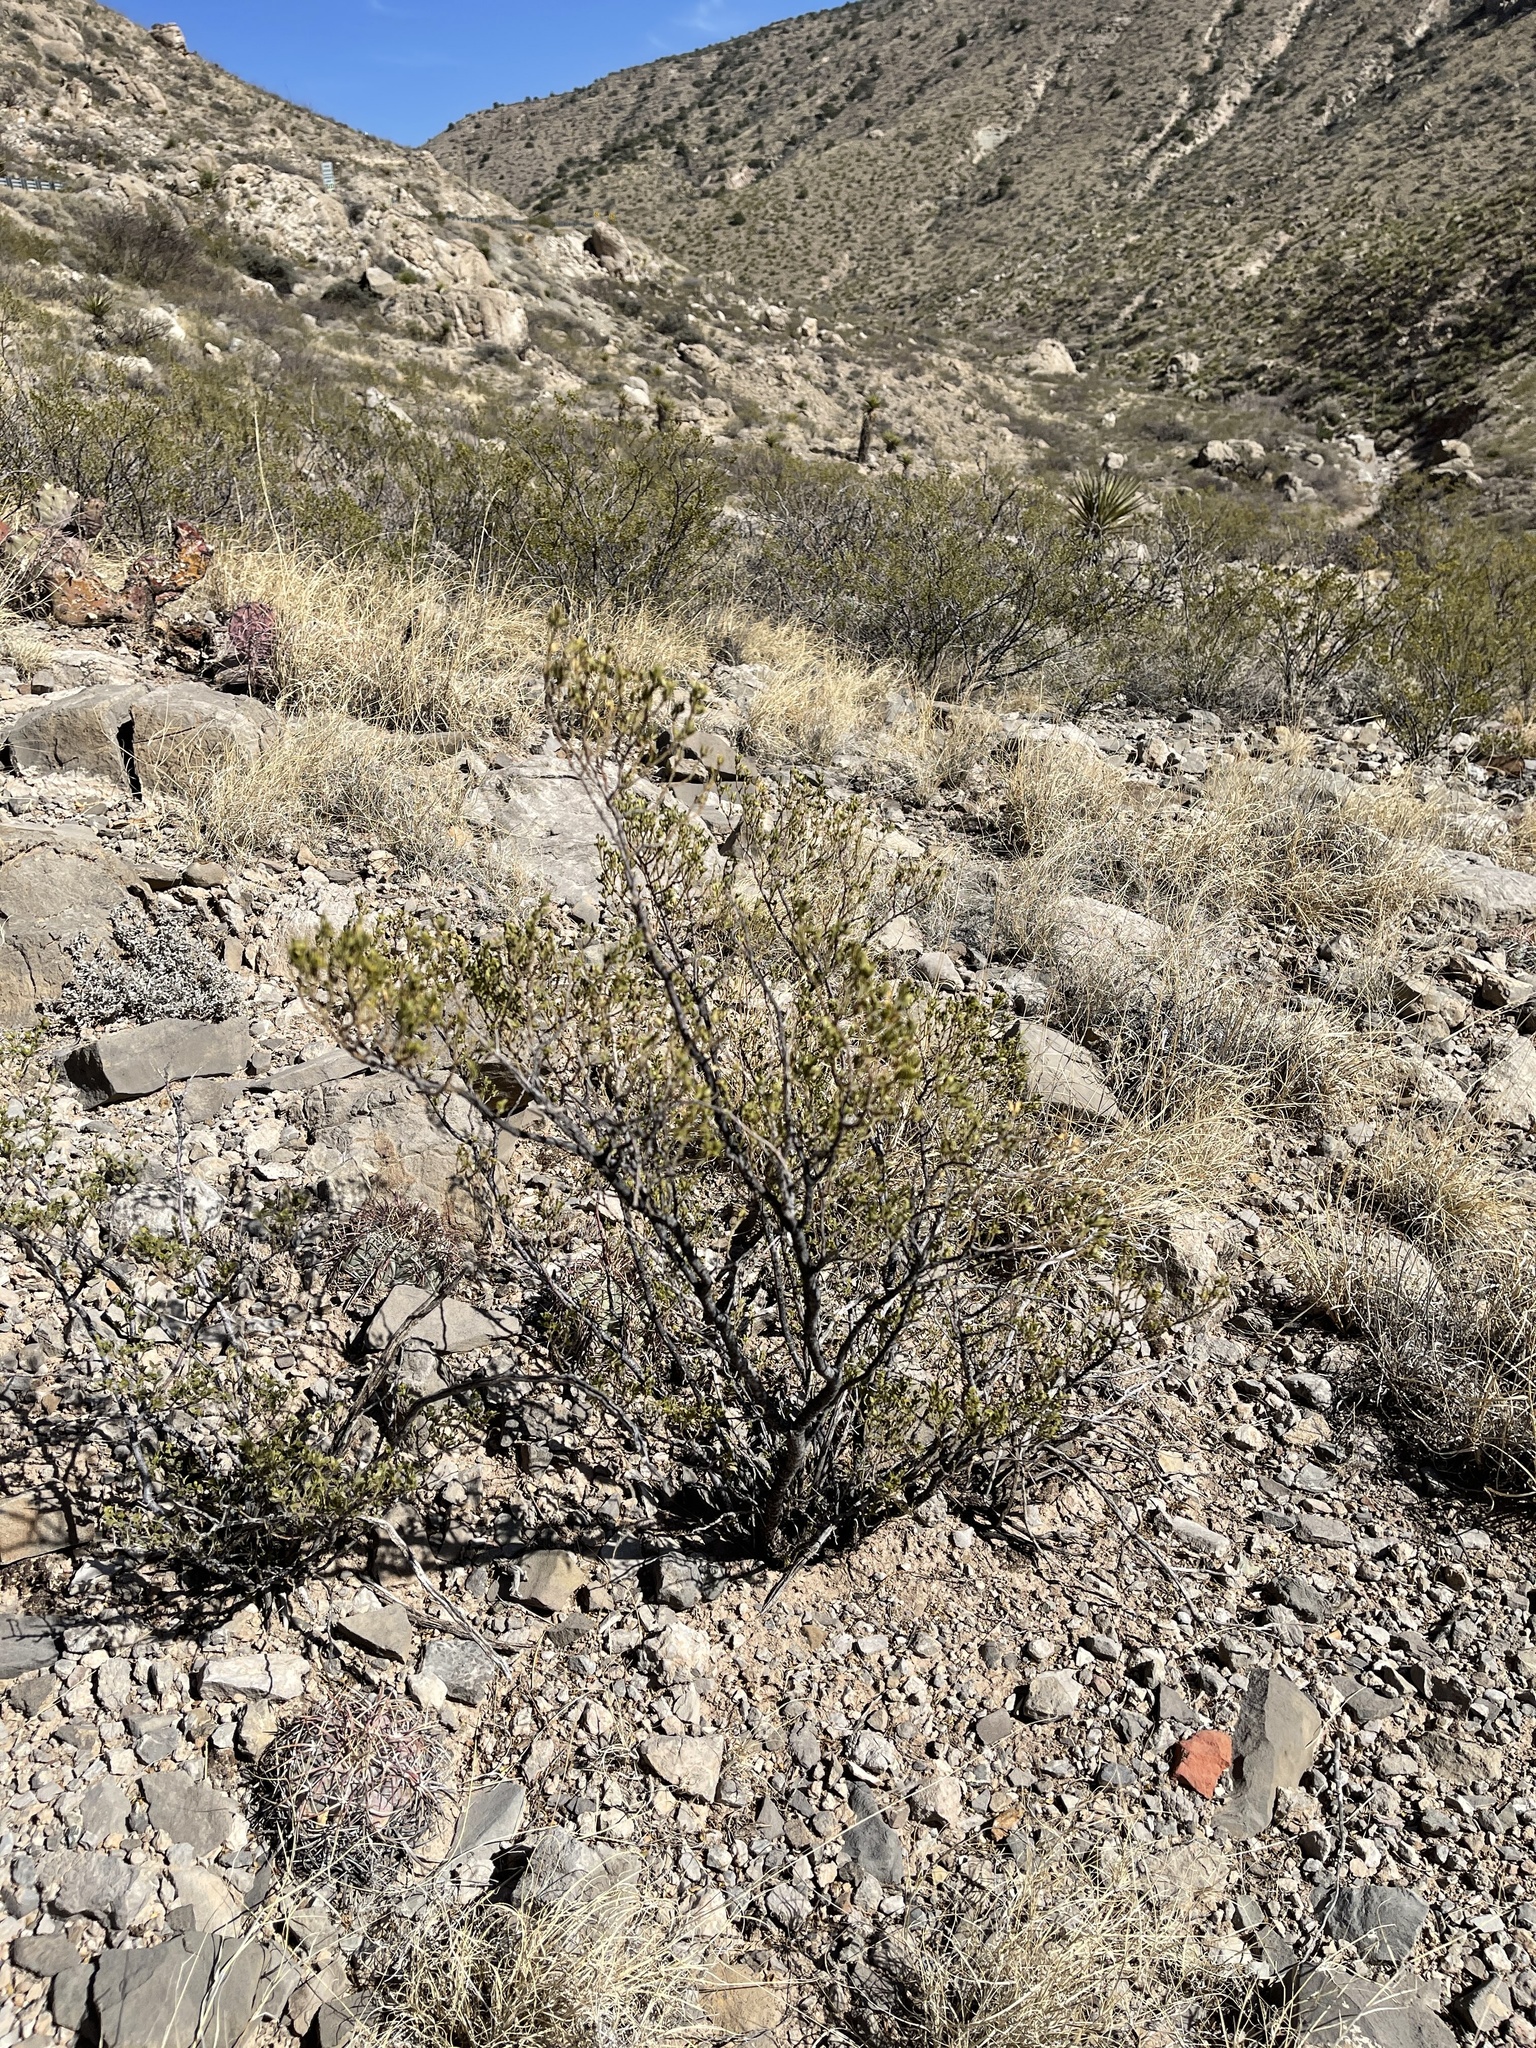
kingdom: Plantae
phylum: Tracheophyta
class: Magnoliopsida
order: Zygophyllales
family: Zygophyllaceae
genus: Larrea
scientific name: Larrea tridentata
